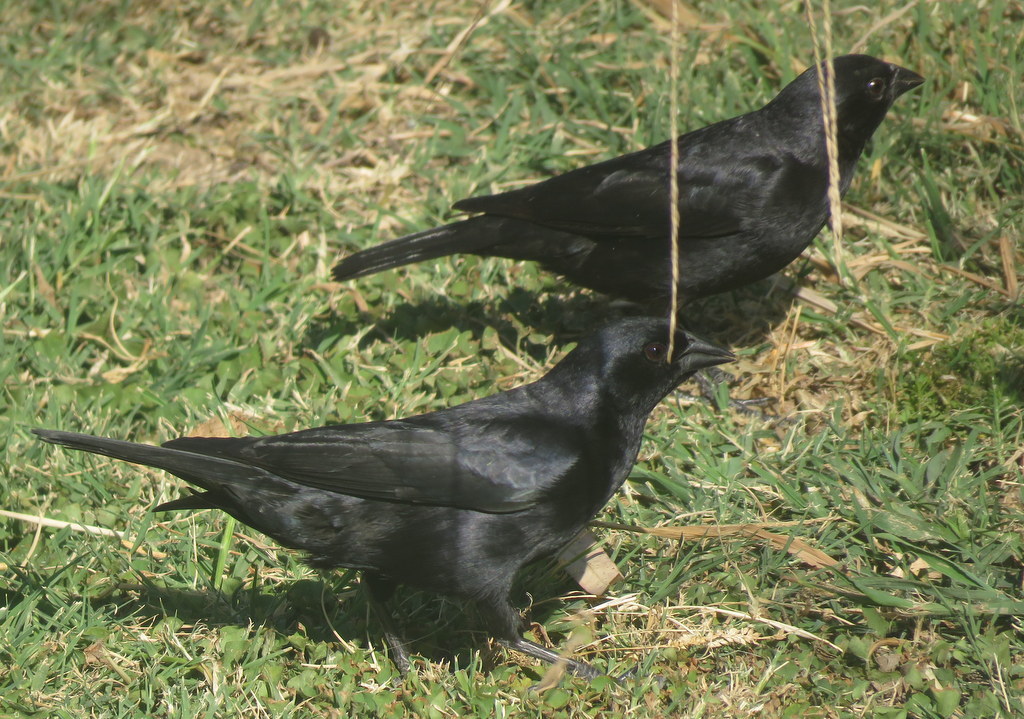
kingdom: Animalia
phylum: Chordata
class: Aves
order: Passeriformes
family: Icteridae
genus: Molothrus
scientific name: Molothrus rufoaxillaris
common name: Screaming cowbird
